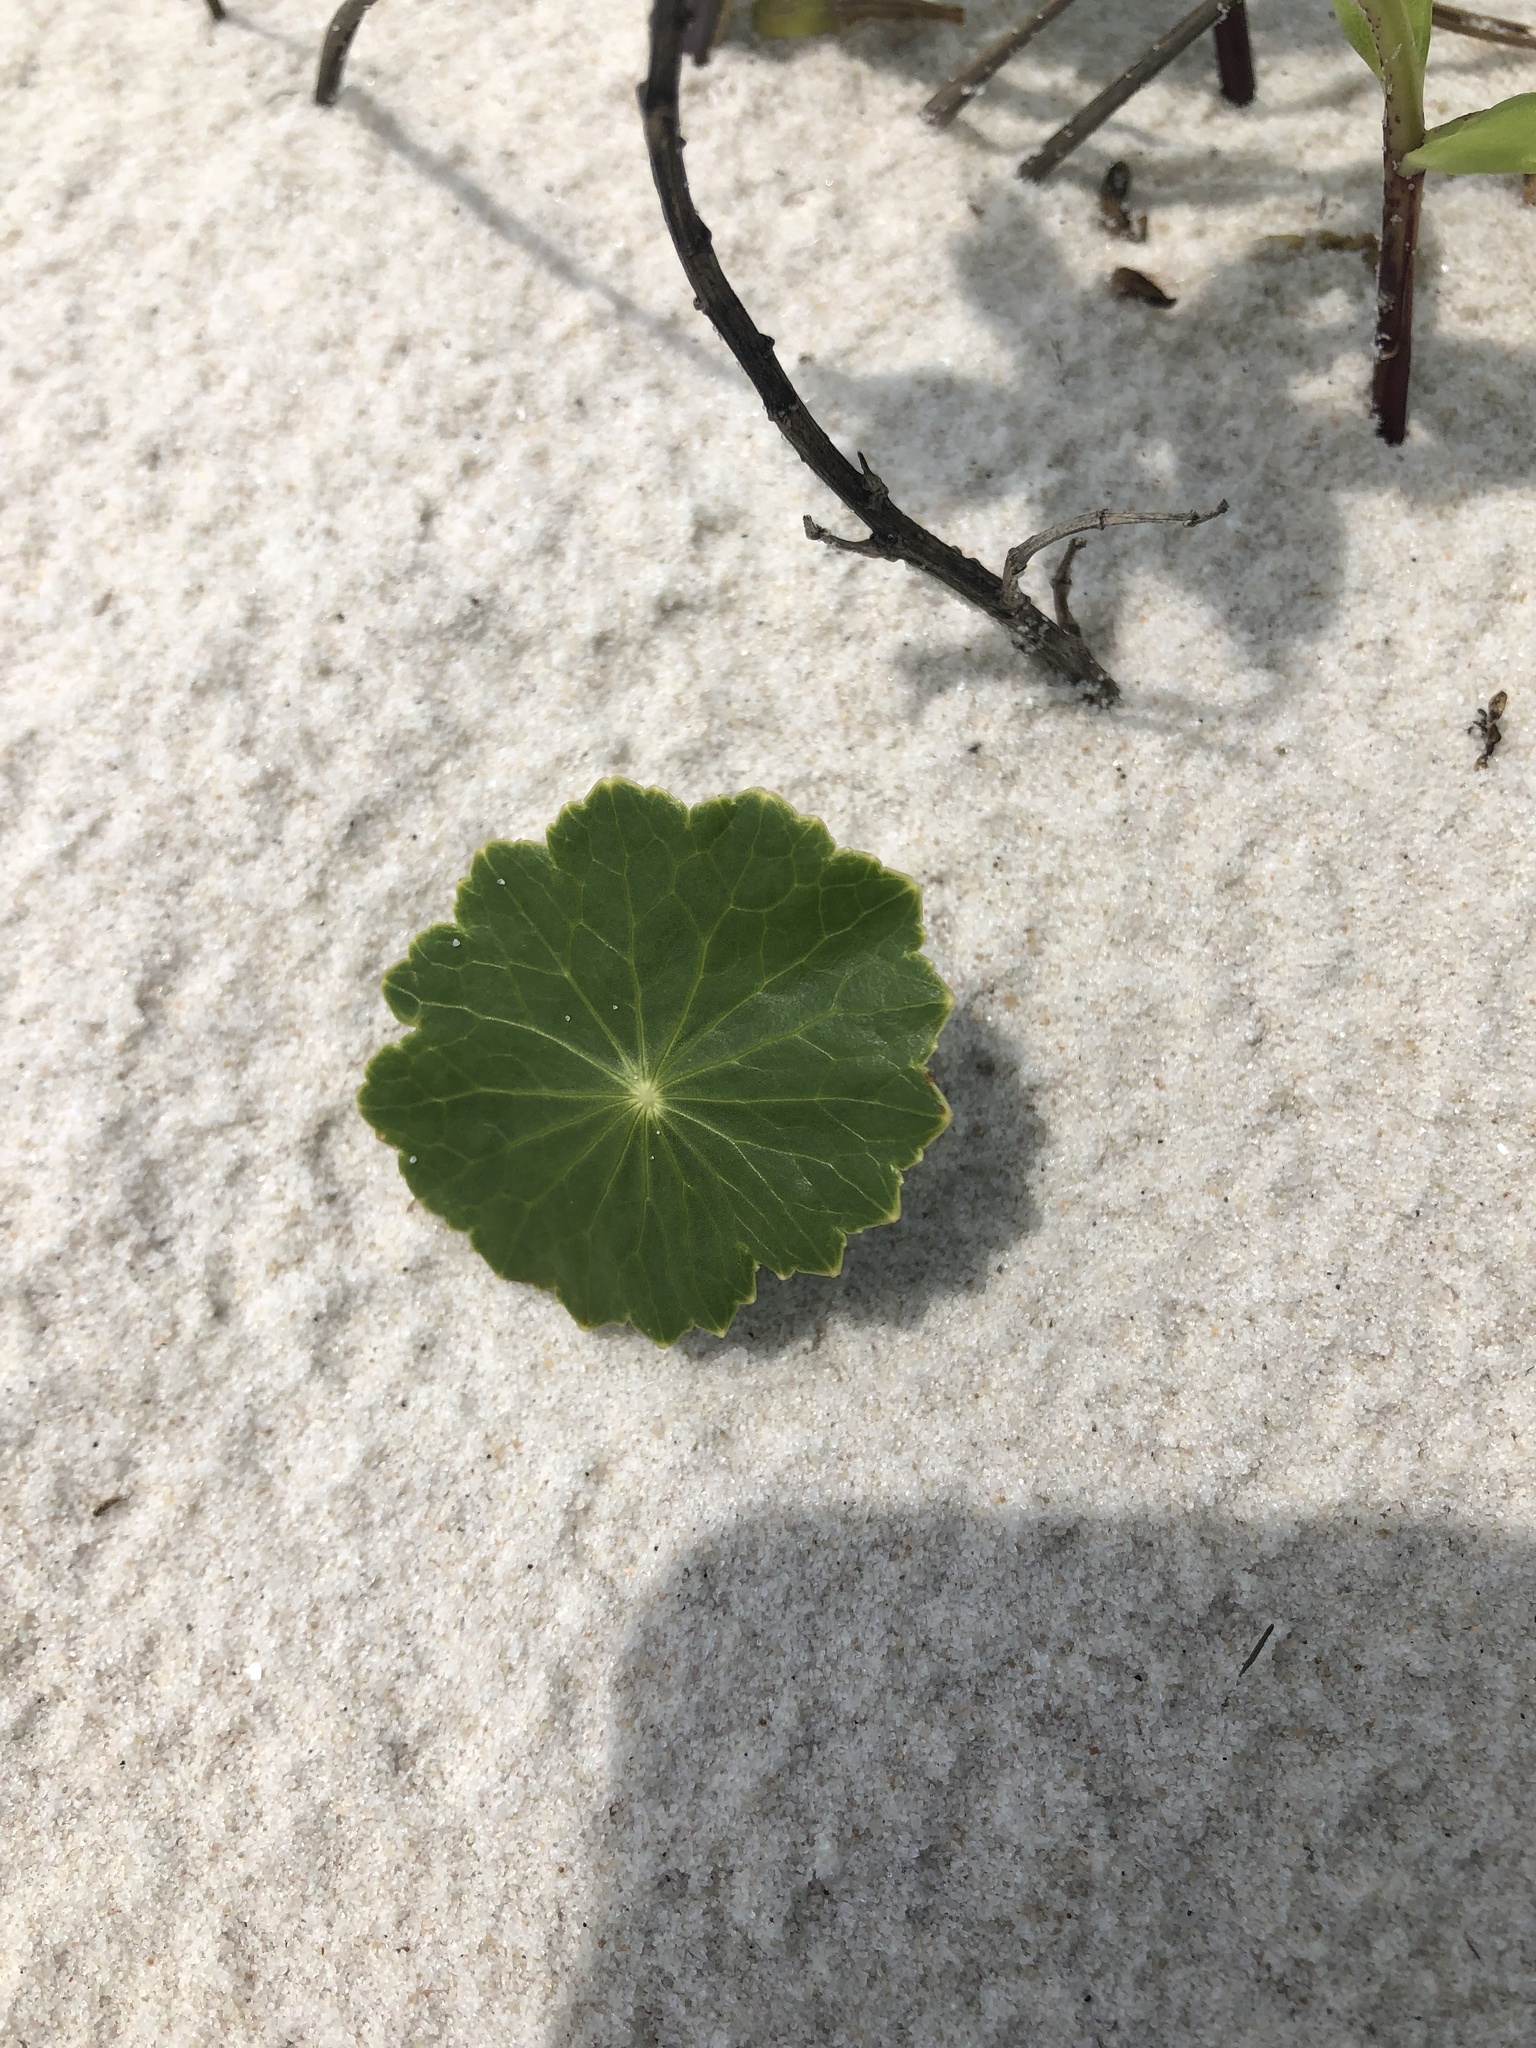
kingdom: Plantae
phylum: Tracheophyta
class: Magnoliopsida
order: Apiales
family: Araliaceae
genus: Hydrocotyle
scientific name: Hydrocotyle bonariensis
